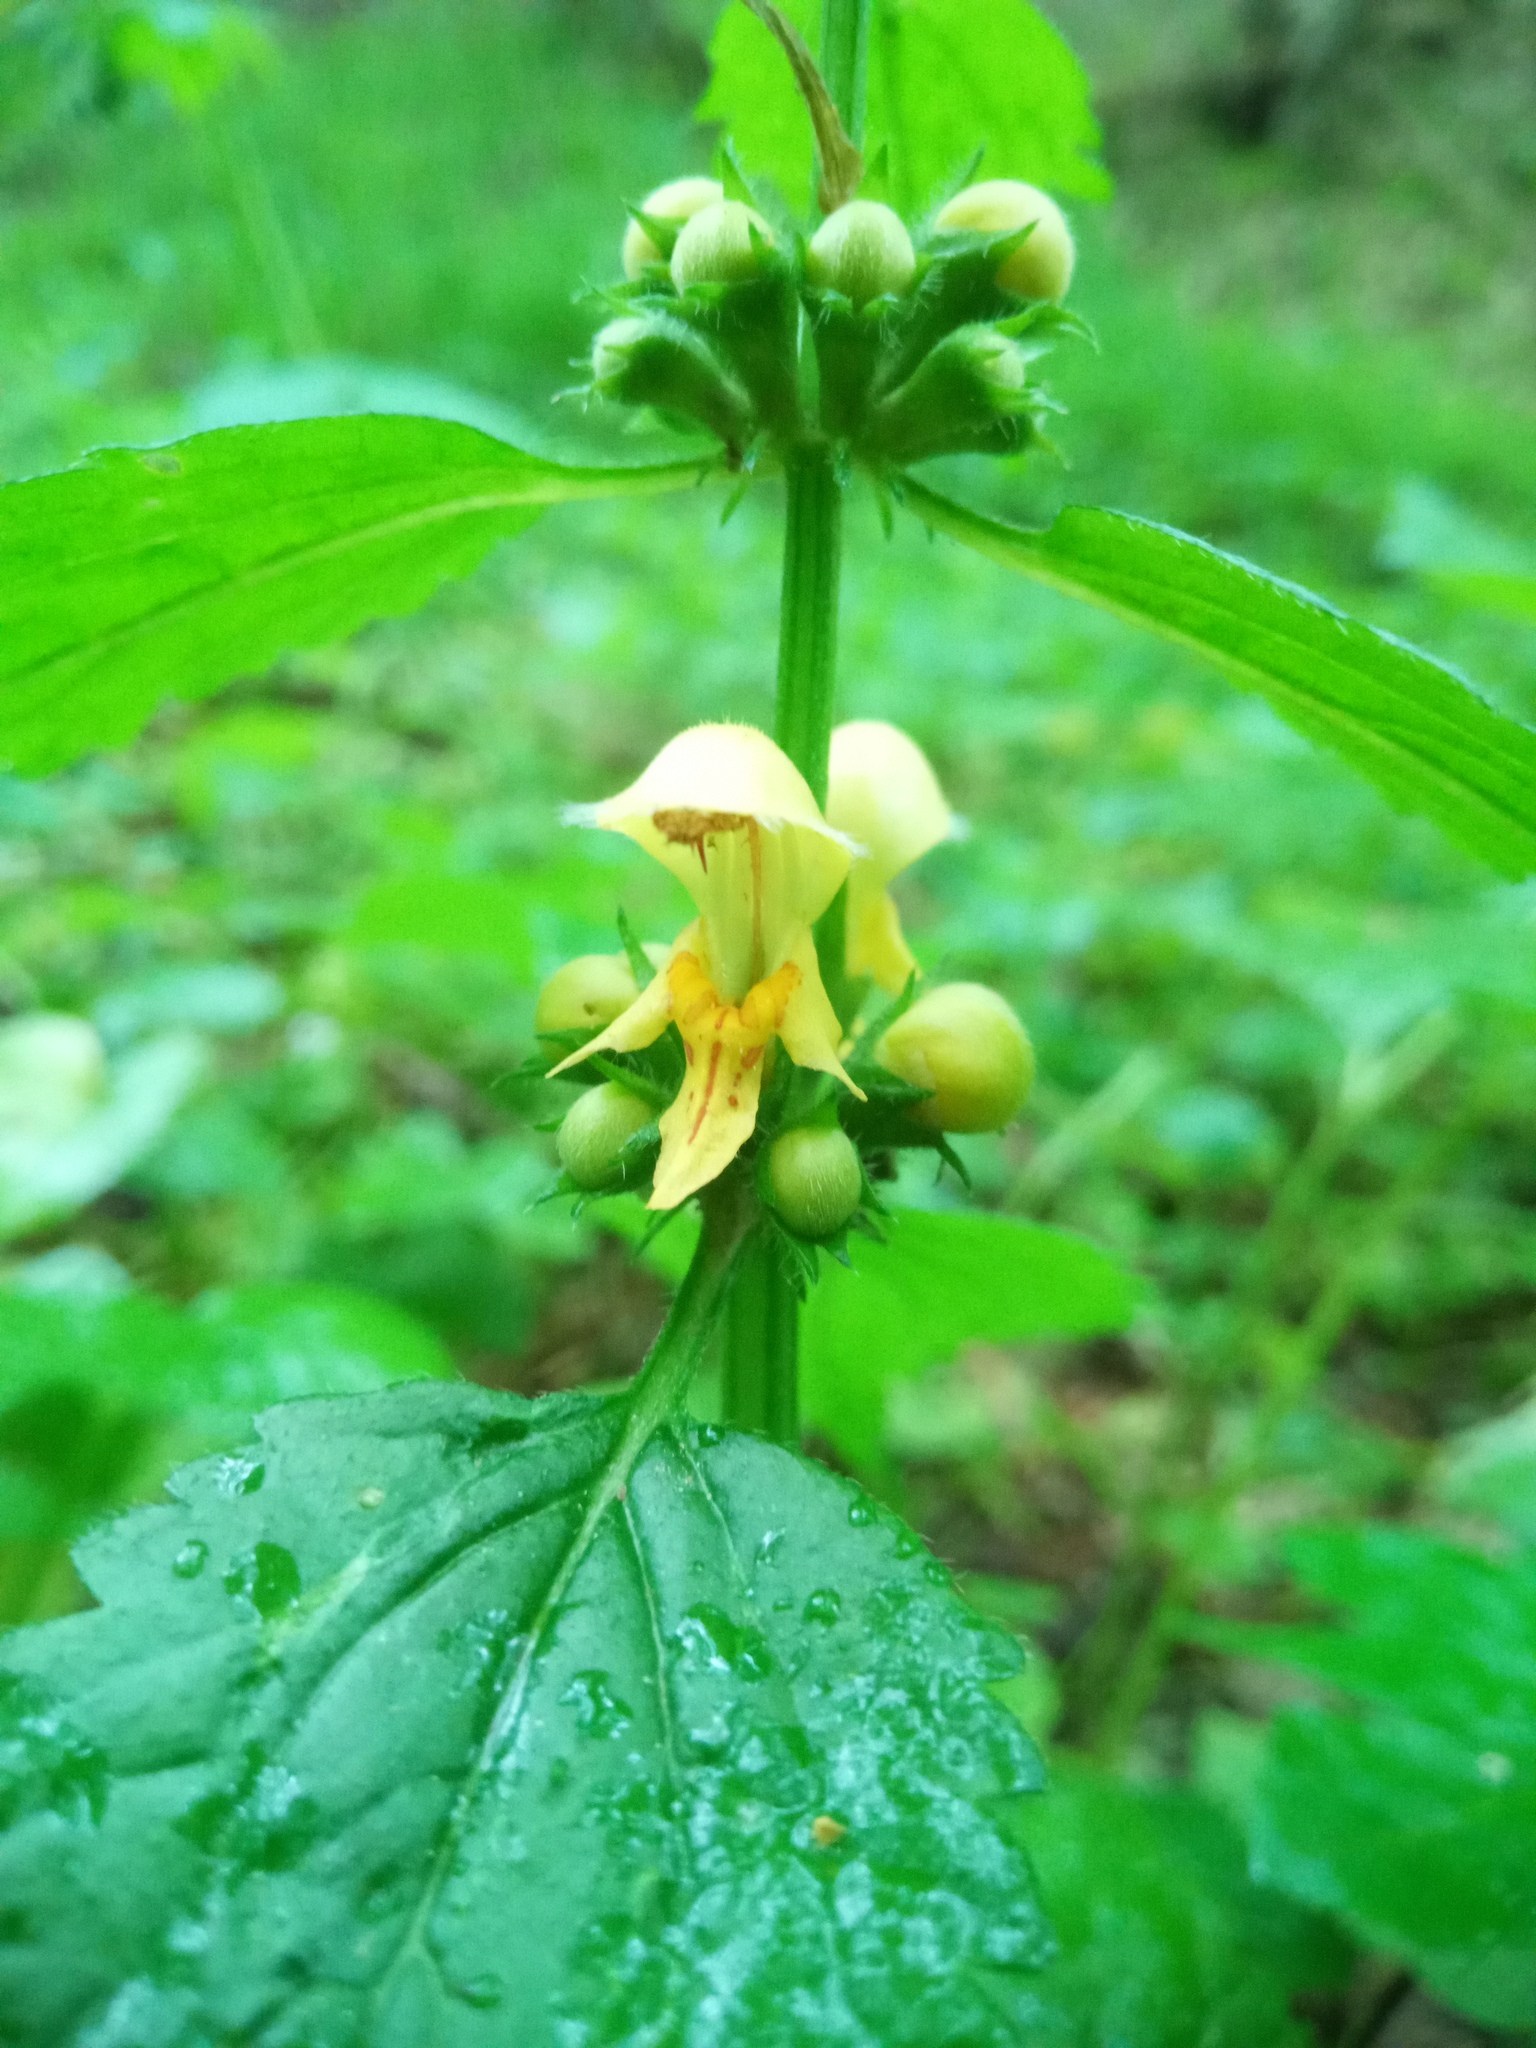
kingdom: Plantae
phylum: Tracheophyta
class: Magnoliopsida
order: Lamiales
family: Lamiaceae
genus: Lamium
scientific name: Lamium galeobdolon
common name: Yellow archangel
